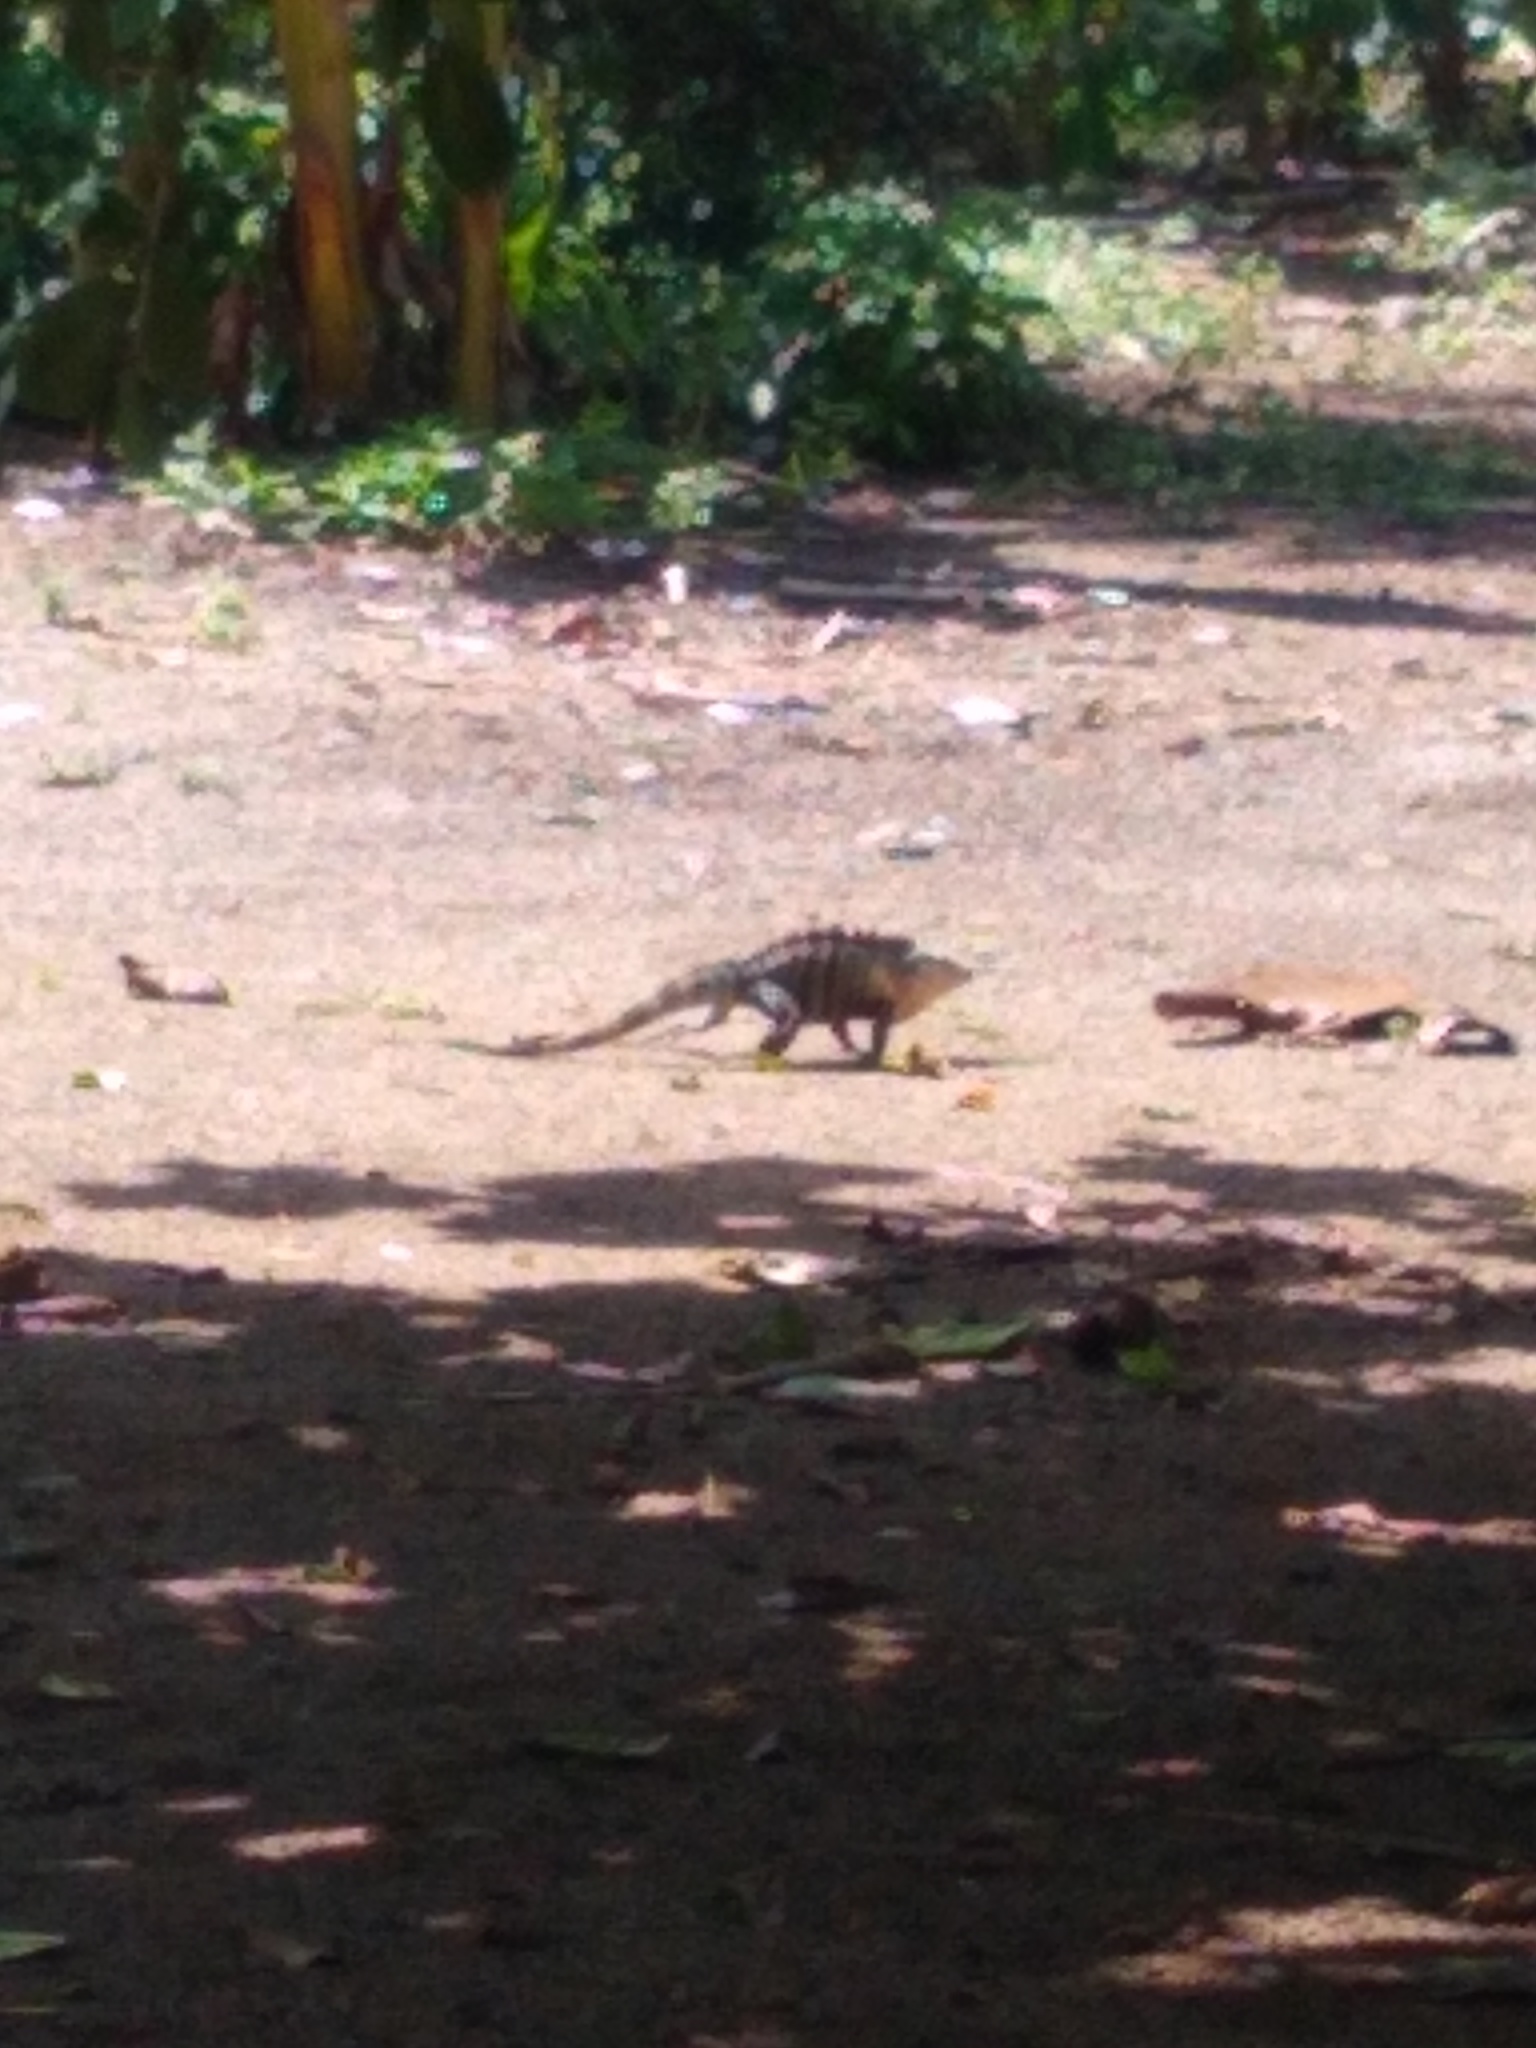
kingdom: Animalia
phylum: Chordata
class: Squamata
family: Iguanidae
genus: Ctenosaura
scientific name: Ctenosaura similis
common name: Black spiny-tailed iguana
